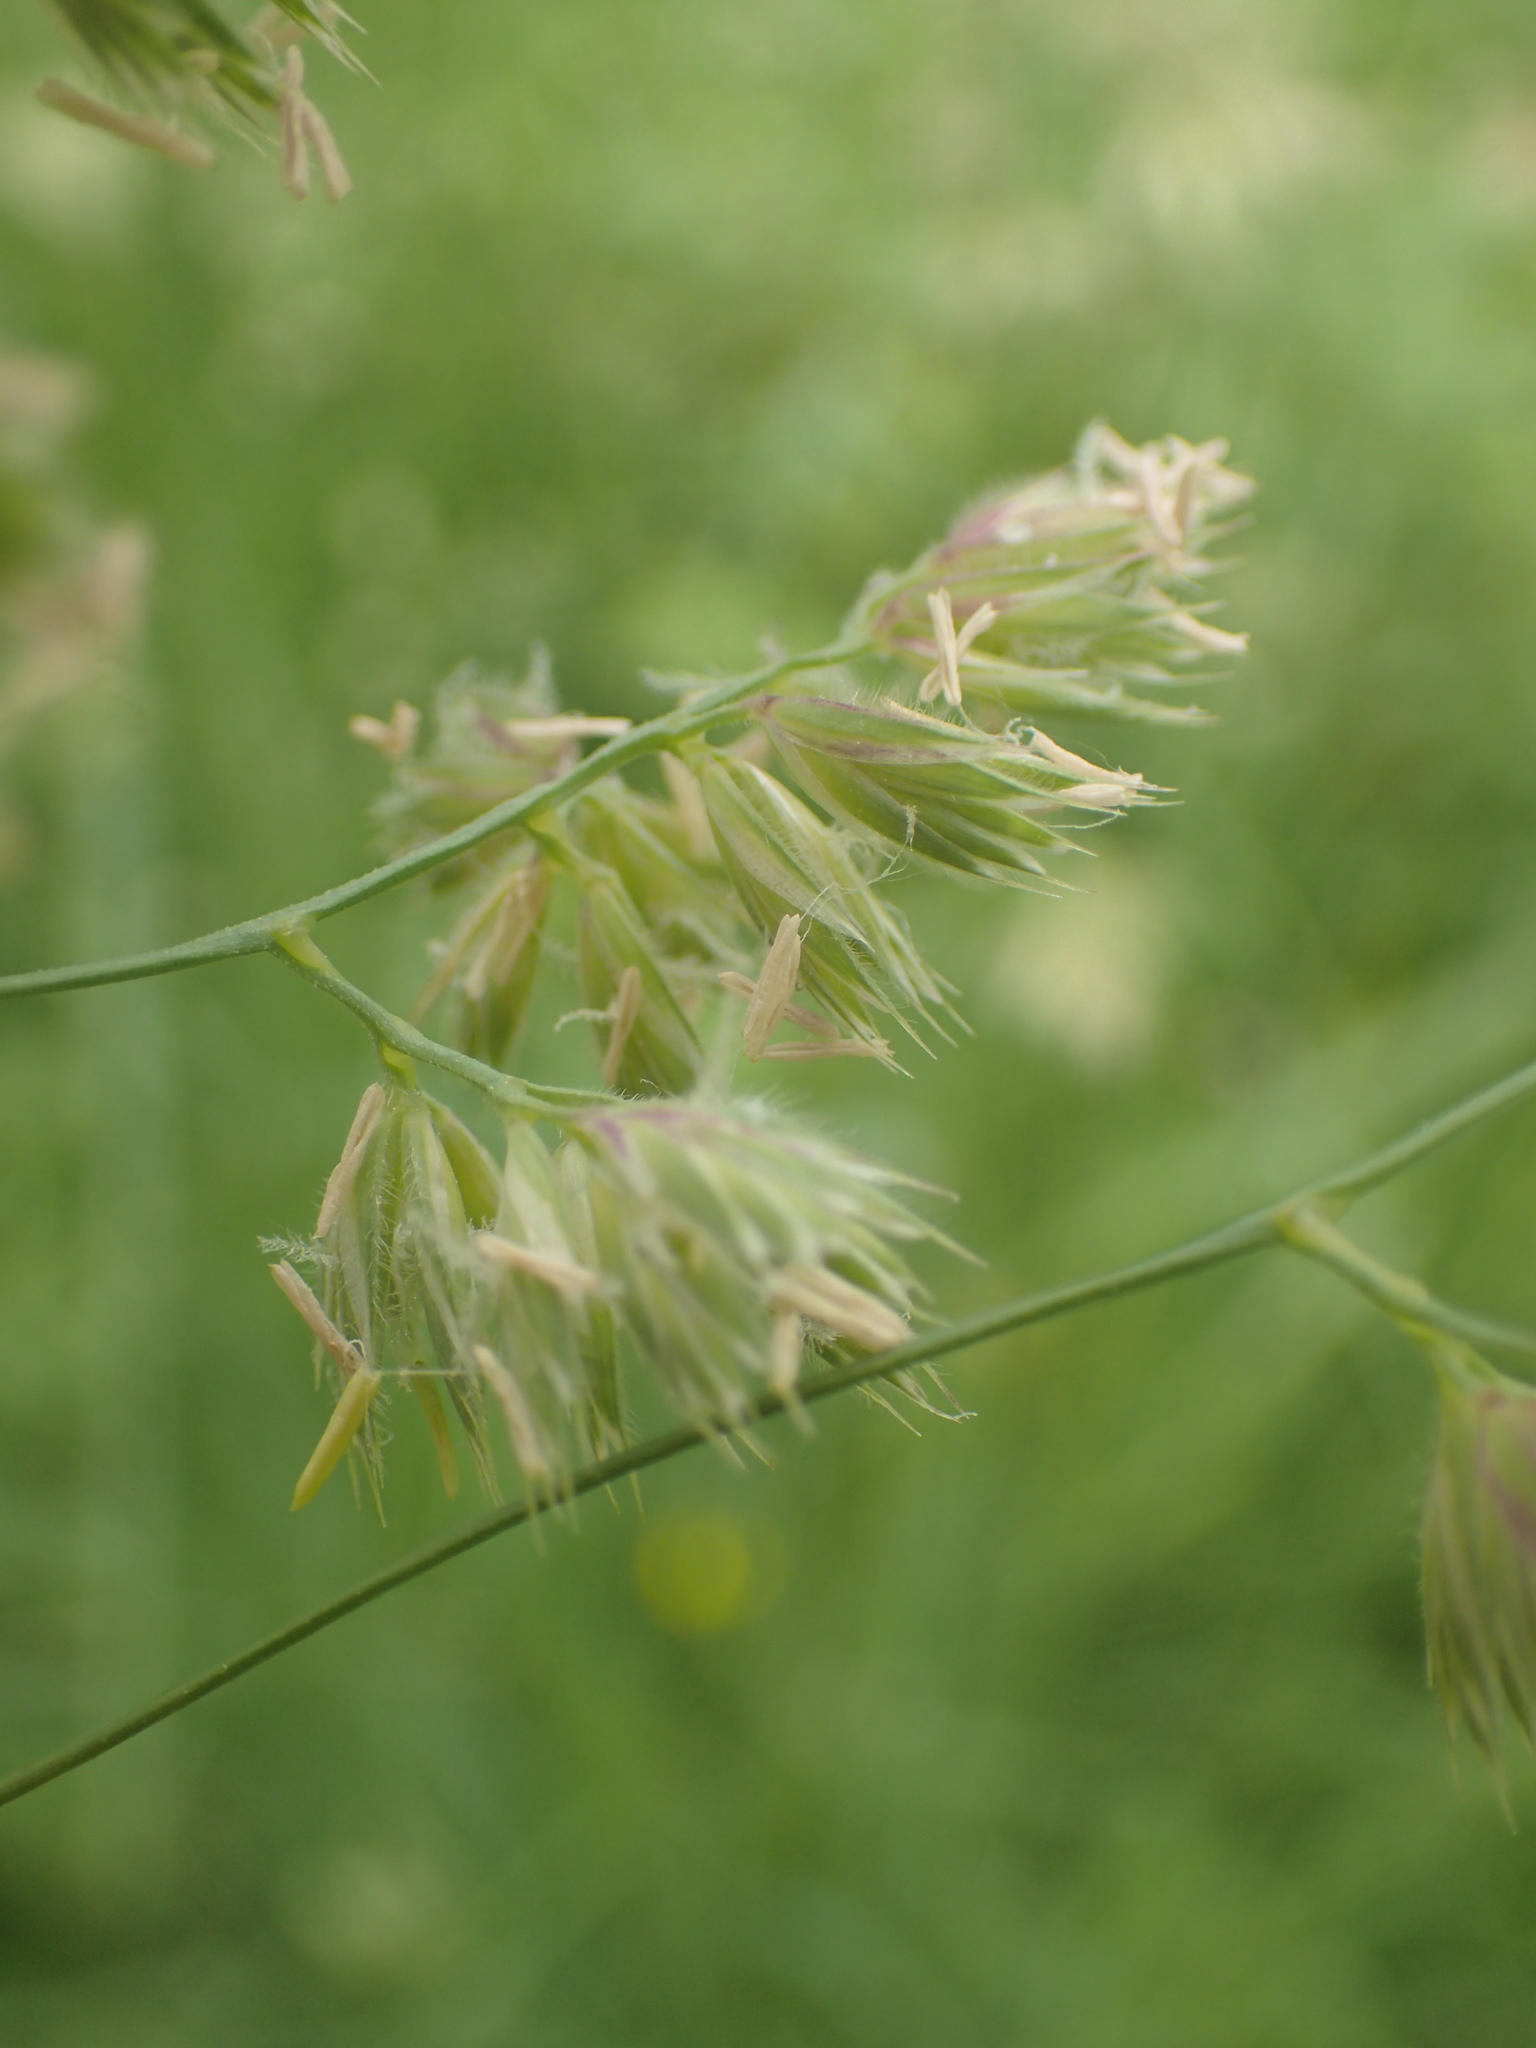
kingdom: Plantae
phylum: Tracheophyta
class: Liliopsida
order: Poales
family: Poaceae
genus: Dactylis
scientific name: Dactylis glomerata
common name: Orchardgrass
